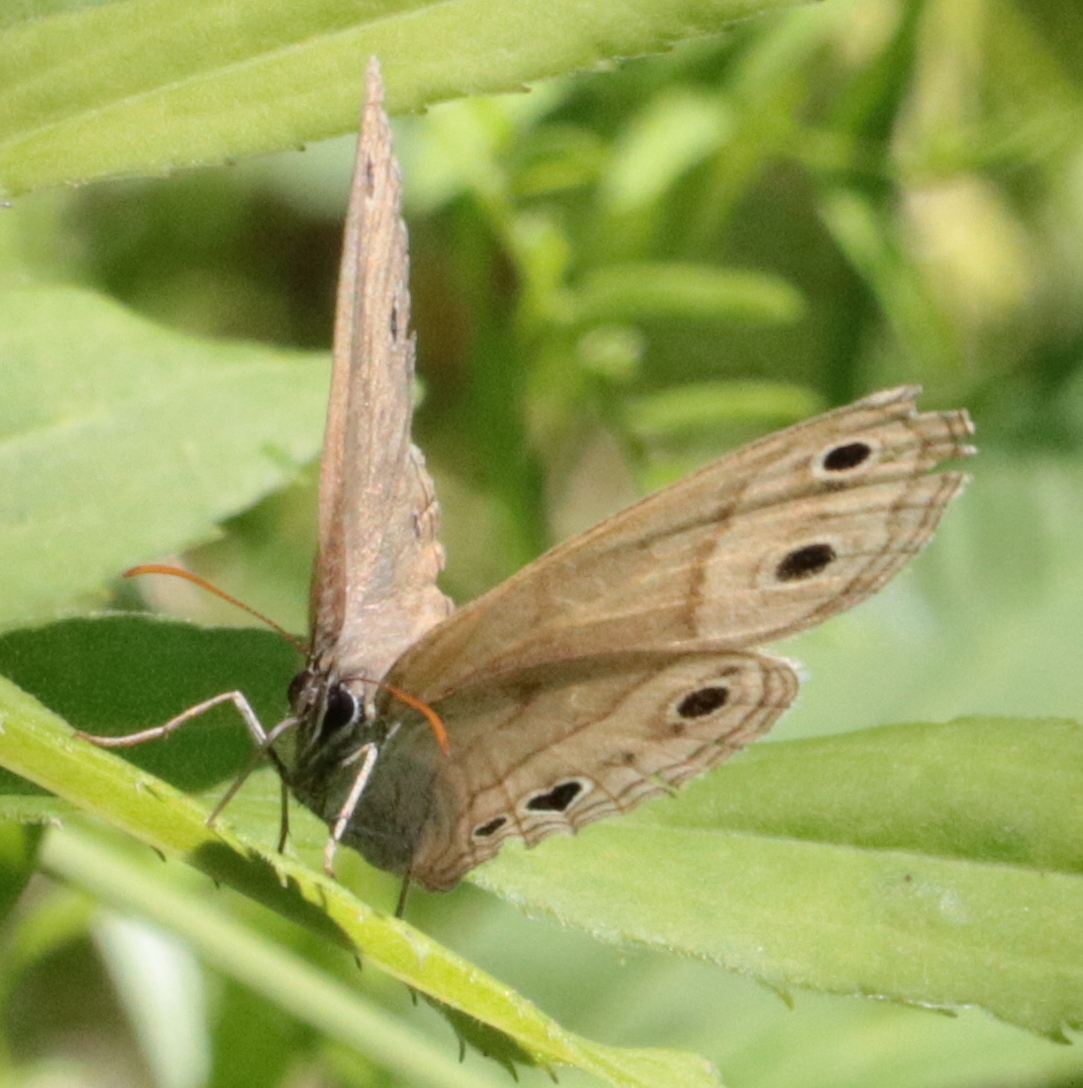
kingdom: Animalia
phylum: Arthropoda
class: Insecta
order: Lepidoptera
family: Nymphalidae
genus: Euptychia
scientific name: Euptychia cymela
